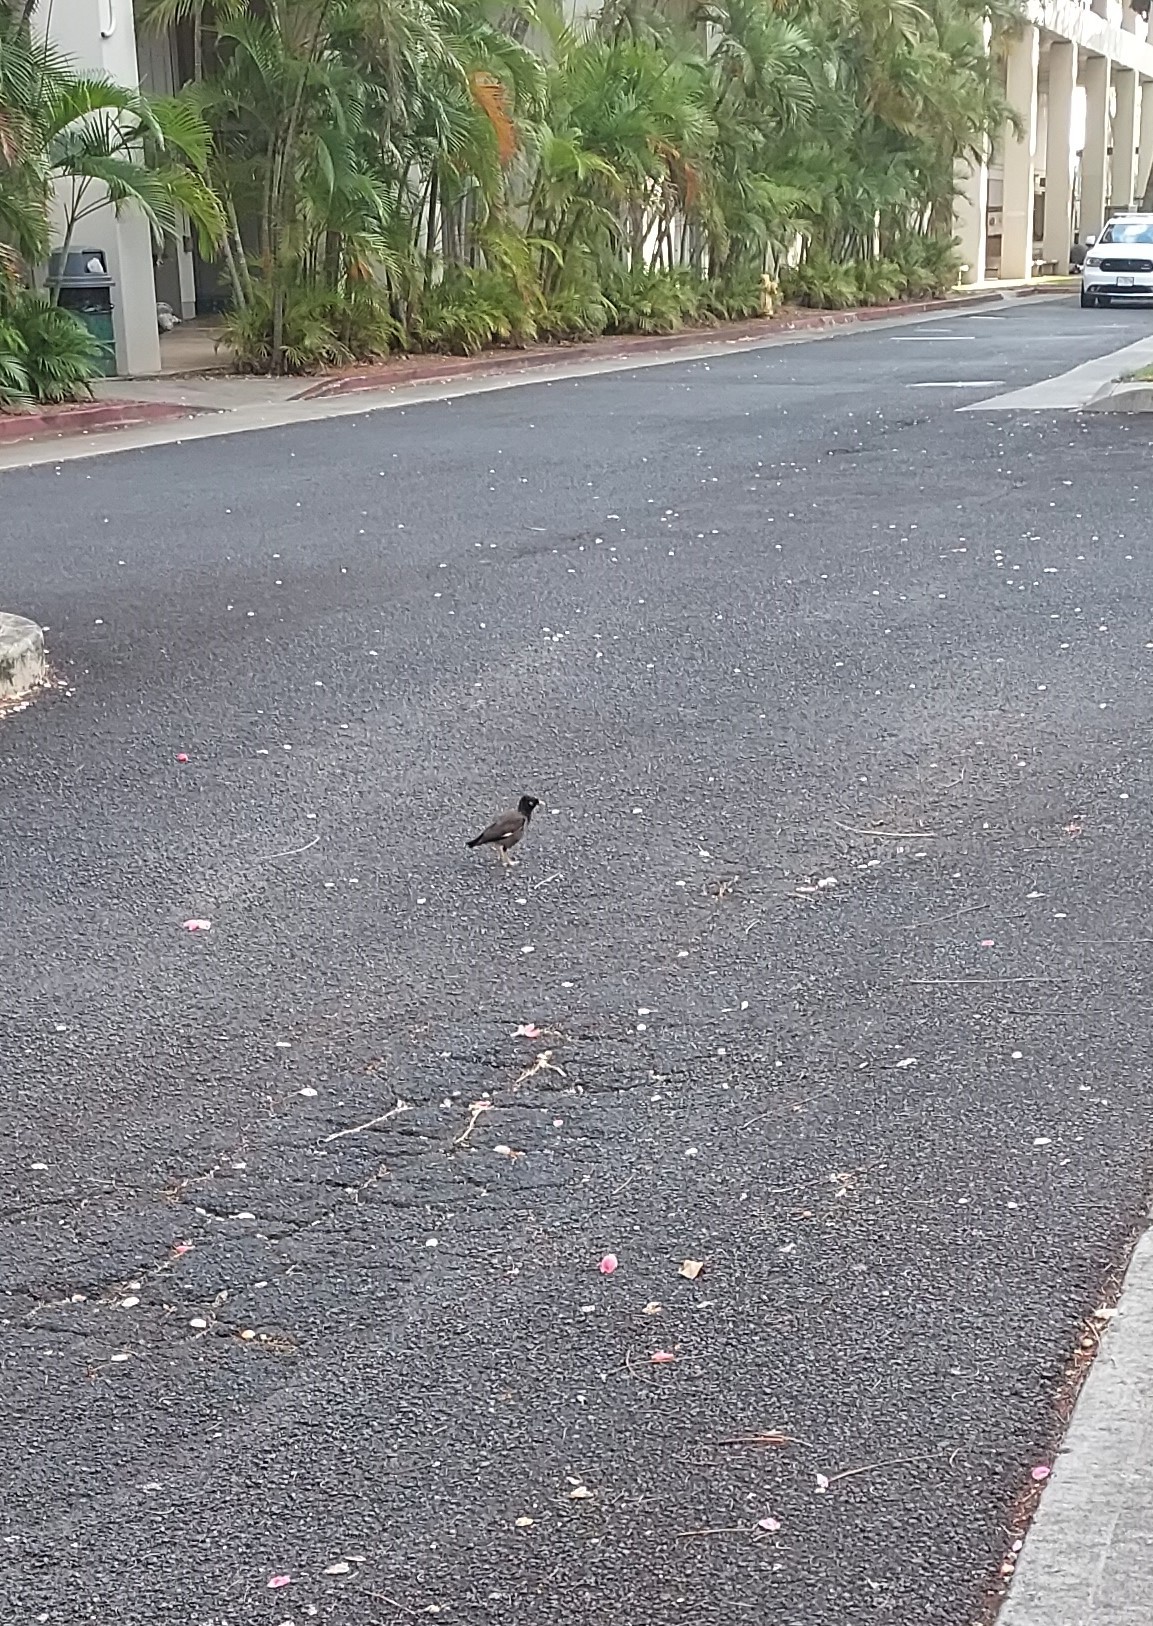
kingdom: Animalia
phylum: Chordata
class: Aves
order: Passeriformes
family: Sturnidae
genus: Acridotheres
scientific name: Acridotheres tristis
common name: Common myna
